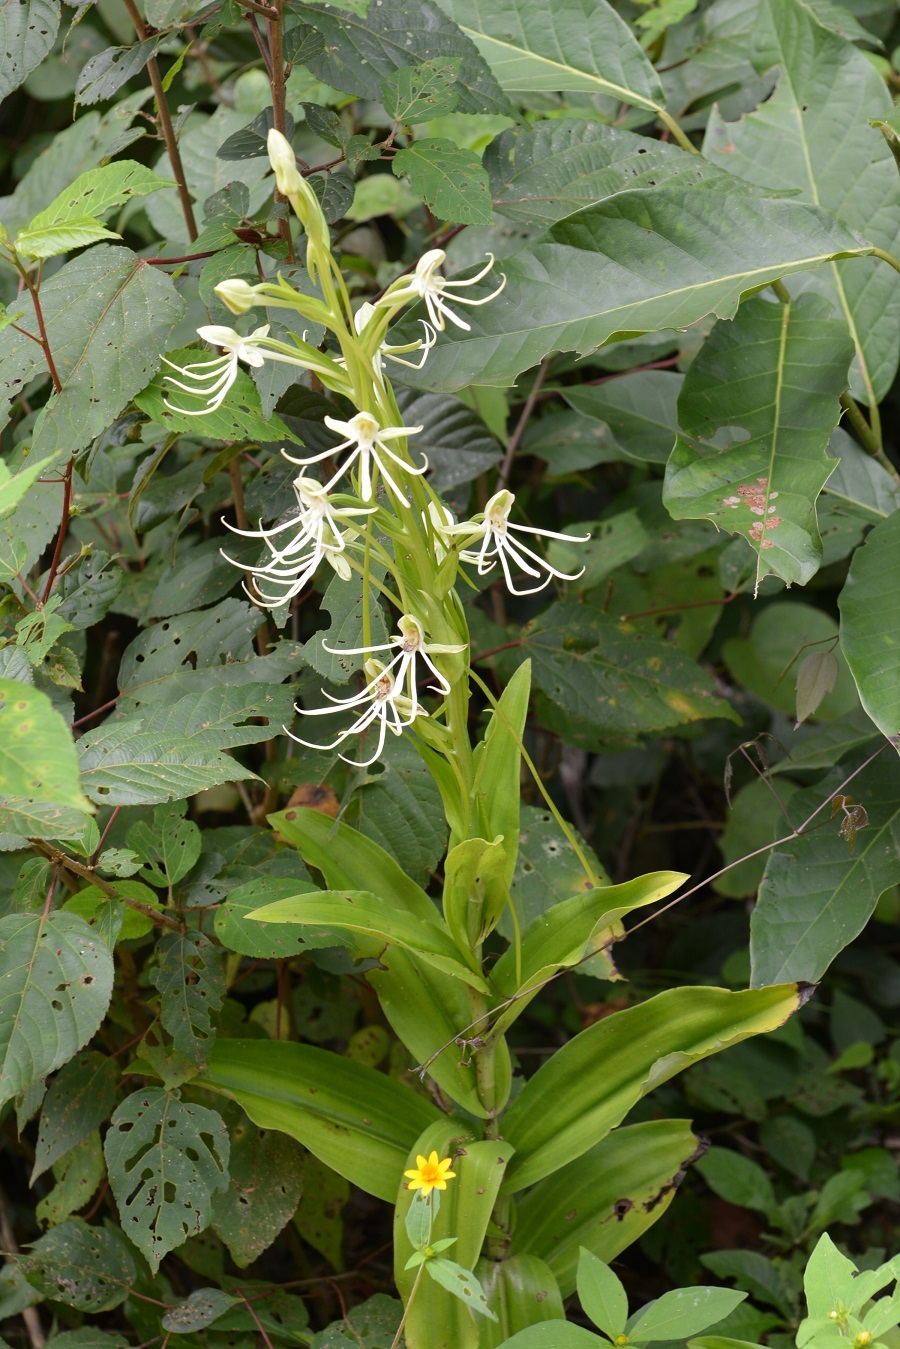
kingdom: Plantae
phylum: Tracheophyta
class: Liliopsida
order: Asparagales
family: Orchidaceae
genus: Habenaria
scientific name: Habenaria macroceratitis
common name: Big-horn bog orchid
